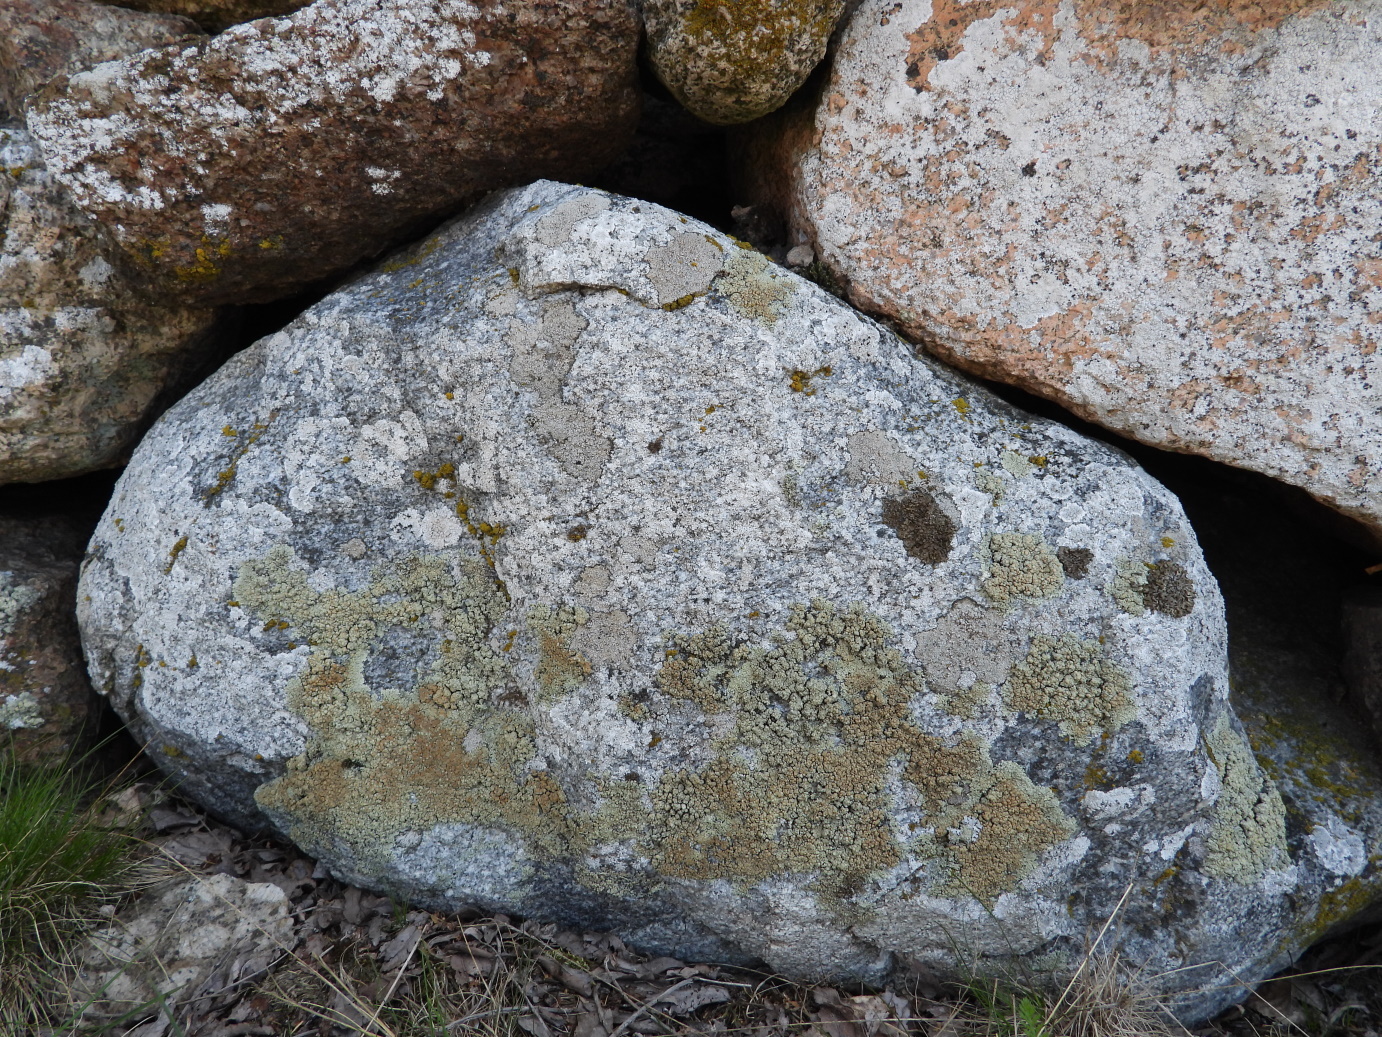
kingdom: Fungi
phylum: Ascomycota
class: Lecanoromycetes
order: Lecanorales
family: Lecanoraceae
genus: Protoparmeliopsis
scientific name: Protoparmeliopsis muralis
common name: Stonewall rim lichen
